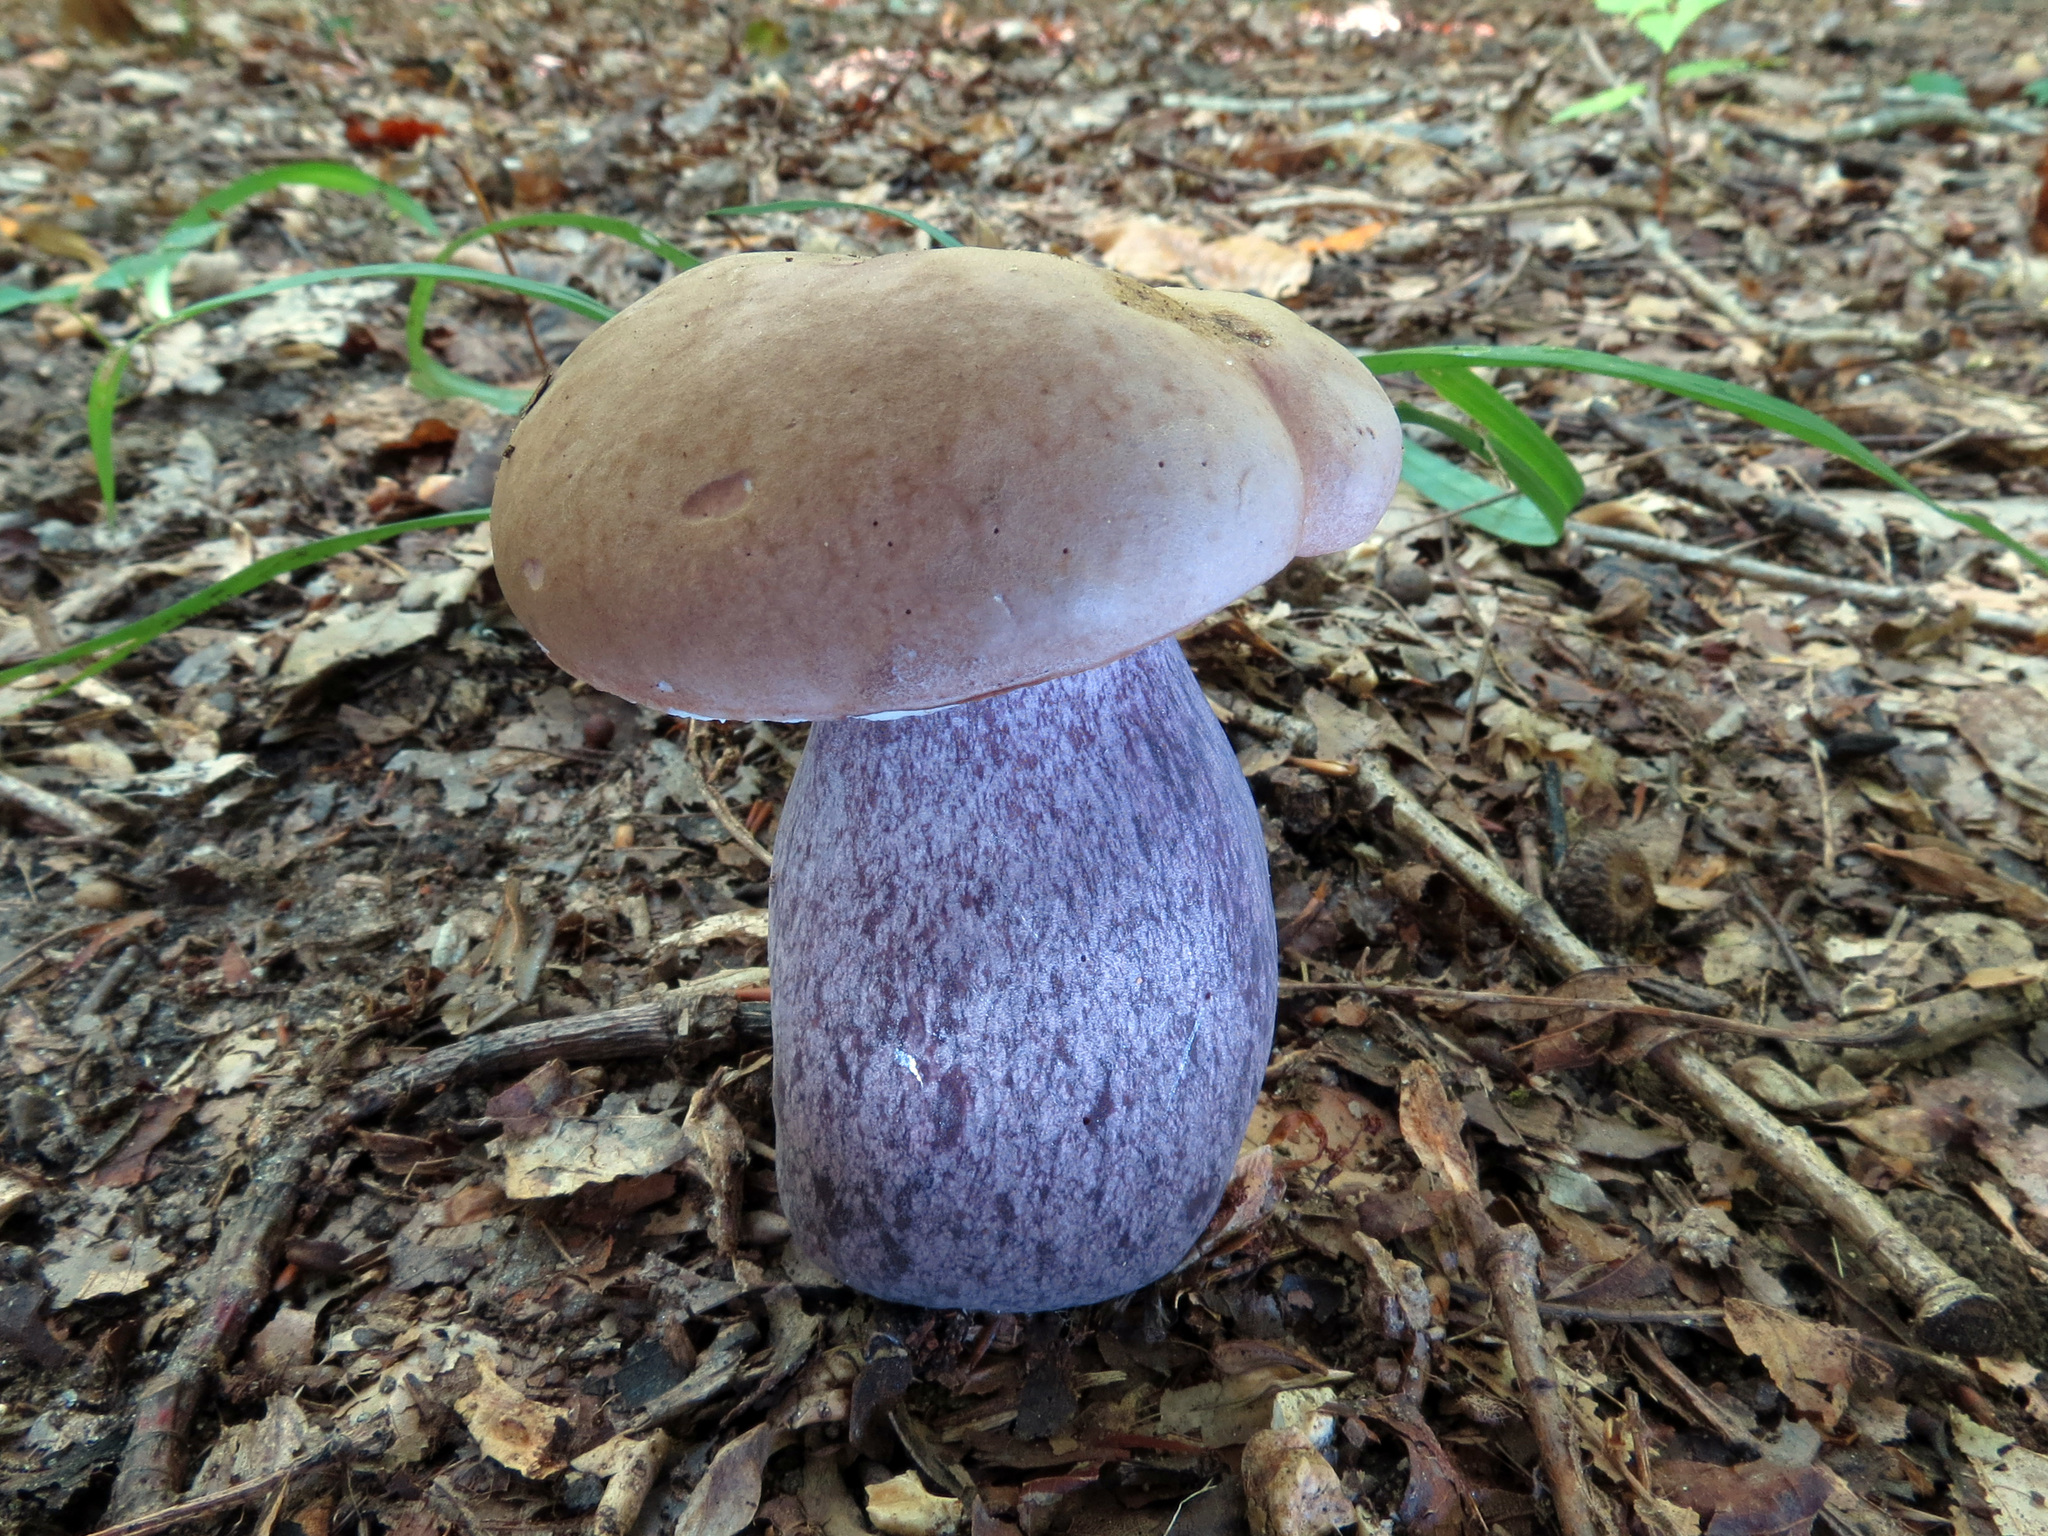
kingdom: Fungi
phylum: Basidiomycota
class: Agaricomycetes
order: Boletales
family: Boletaceae
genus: Tylopilus
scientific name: Tylopilus plumbeoviolaceus
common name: Violet gray bolete
